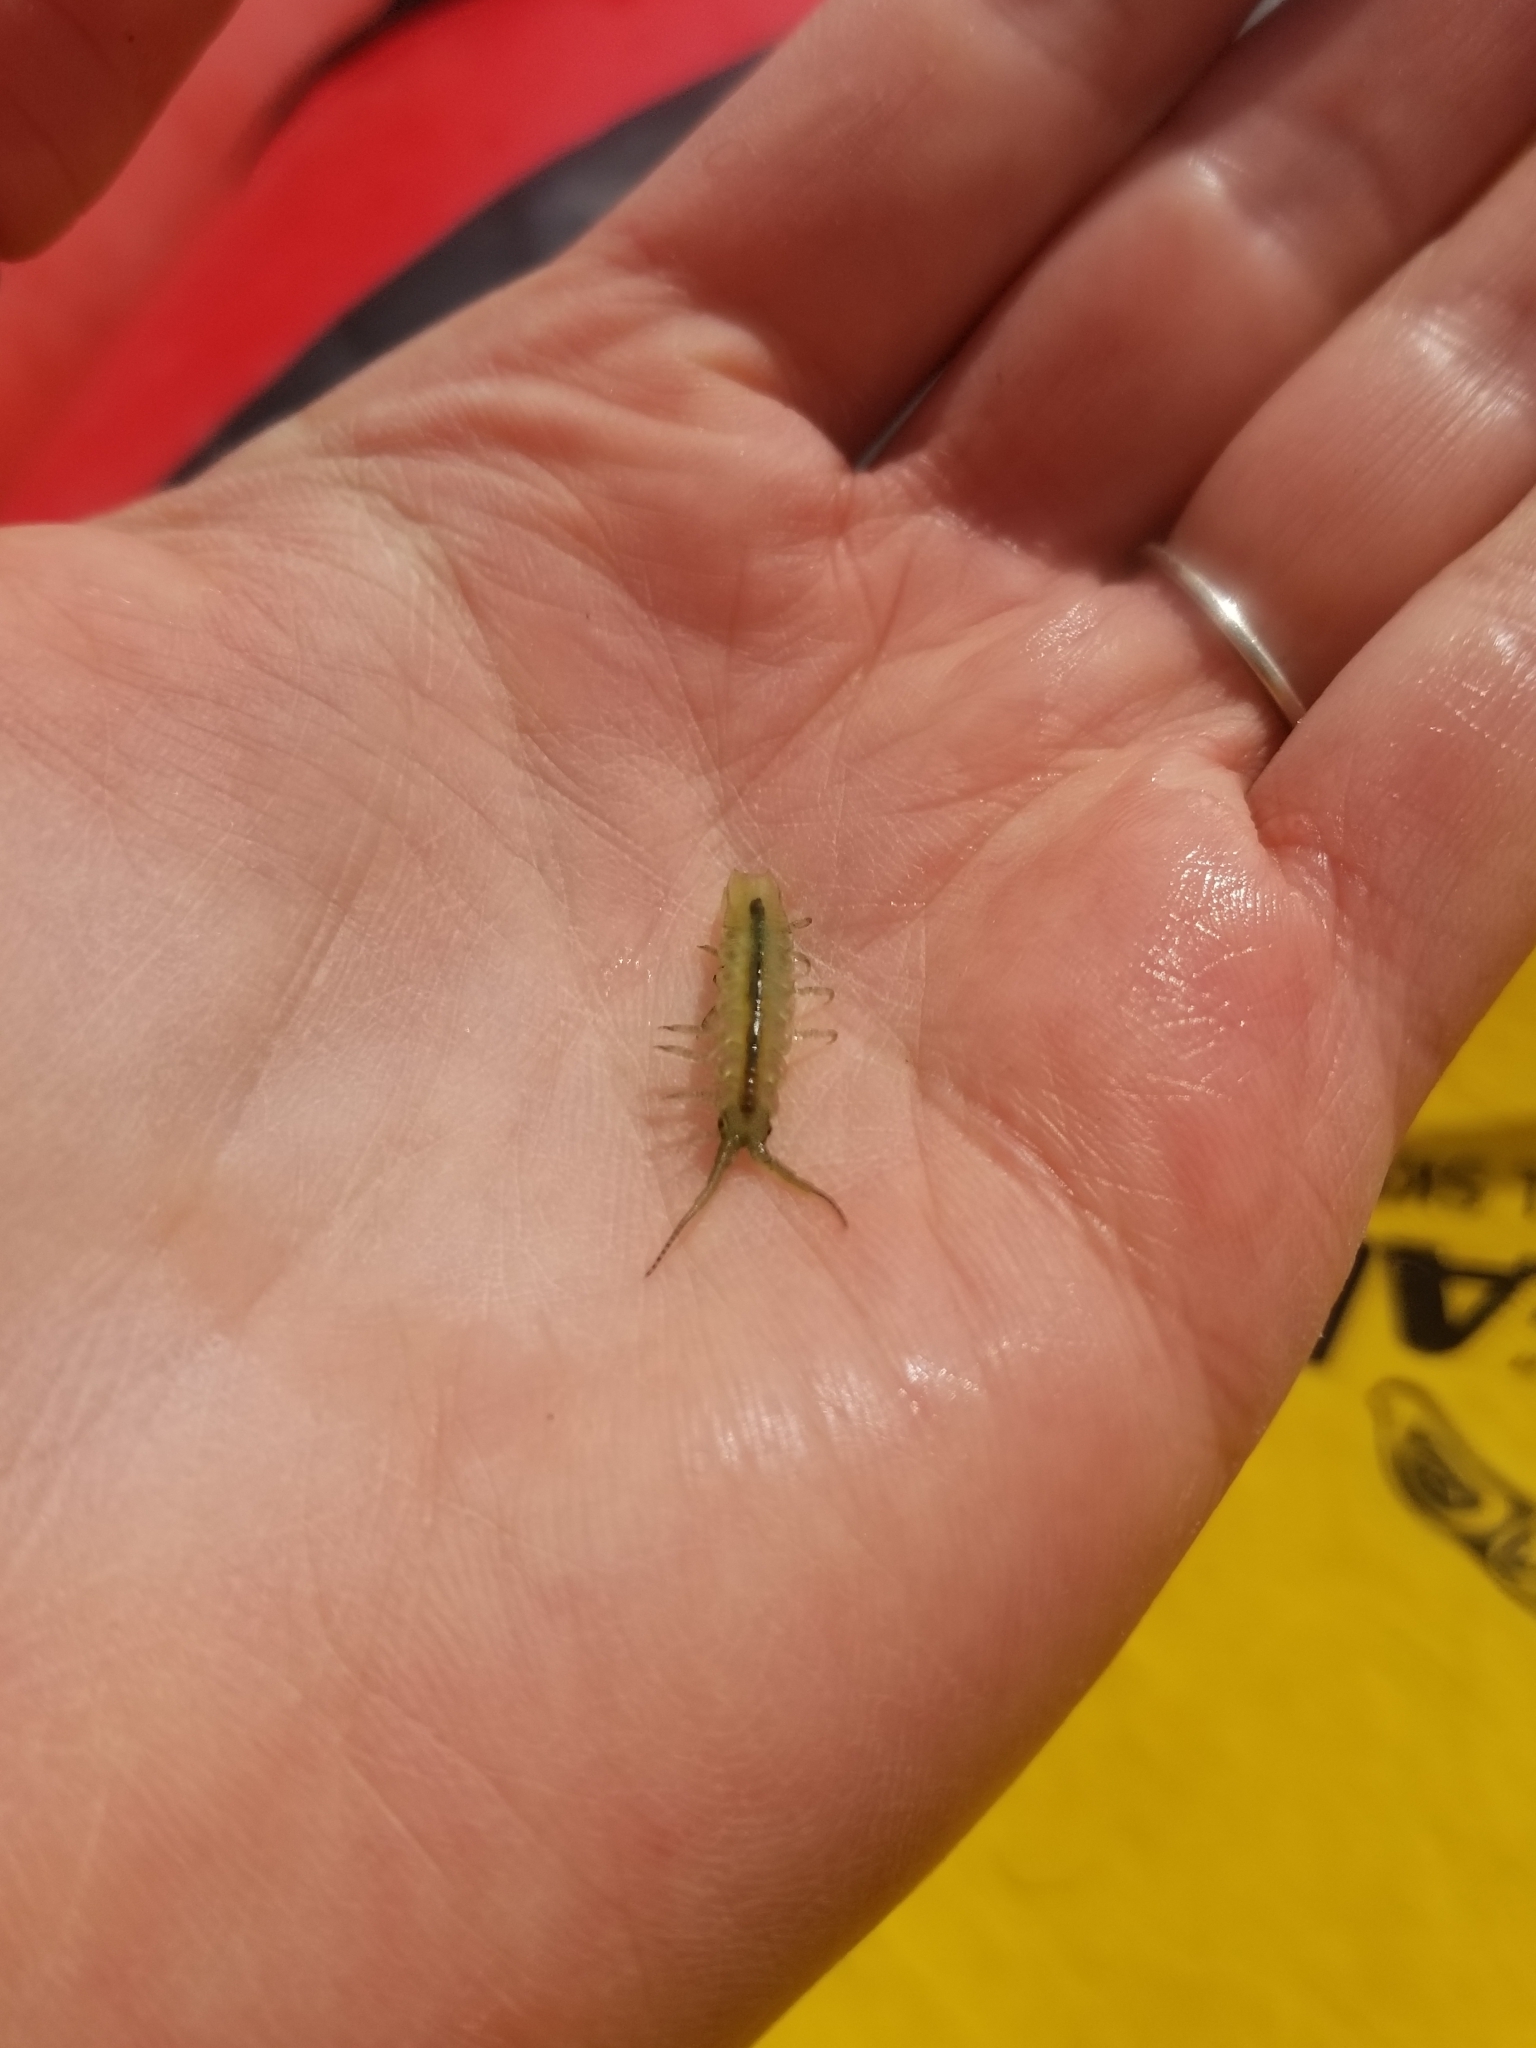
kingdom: Animalia
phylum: Arthropoda
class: Malacostraca
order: Isopoda
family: Idoteidae
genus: Pentidotea
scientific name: Pentidotea resecata
